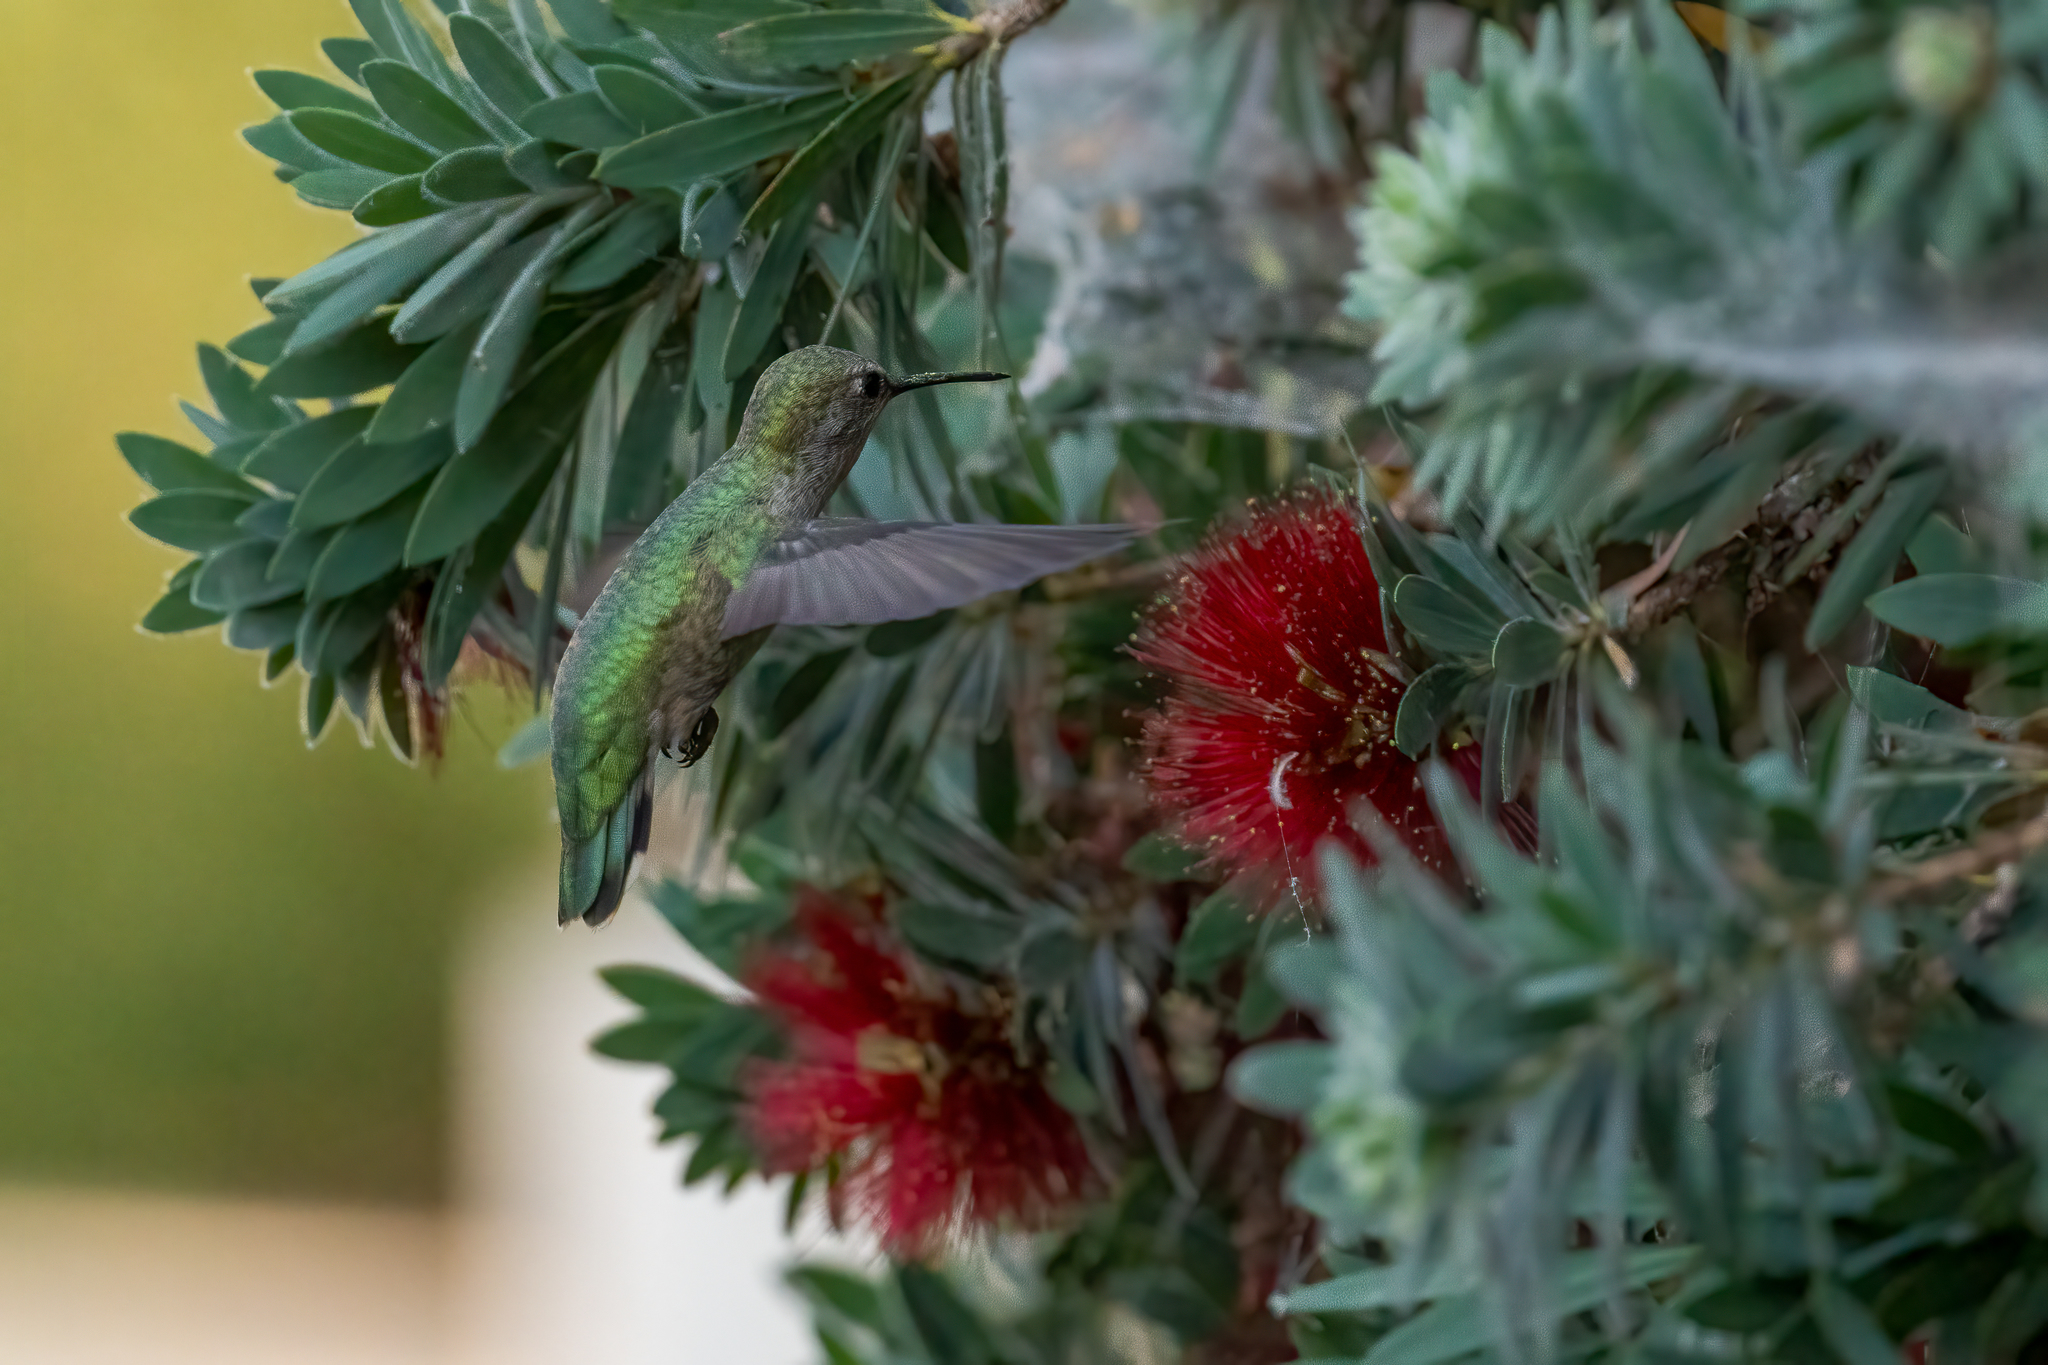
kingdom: Animalia
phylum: Chordata
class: Aves
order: Apodiformes
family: Trochilidae
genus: Calypte
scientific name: Calypte anna
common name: Anna's hummingbird
